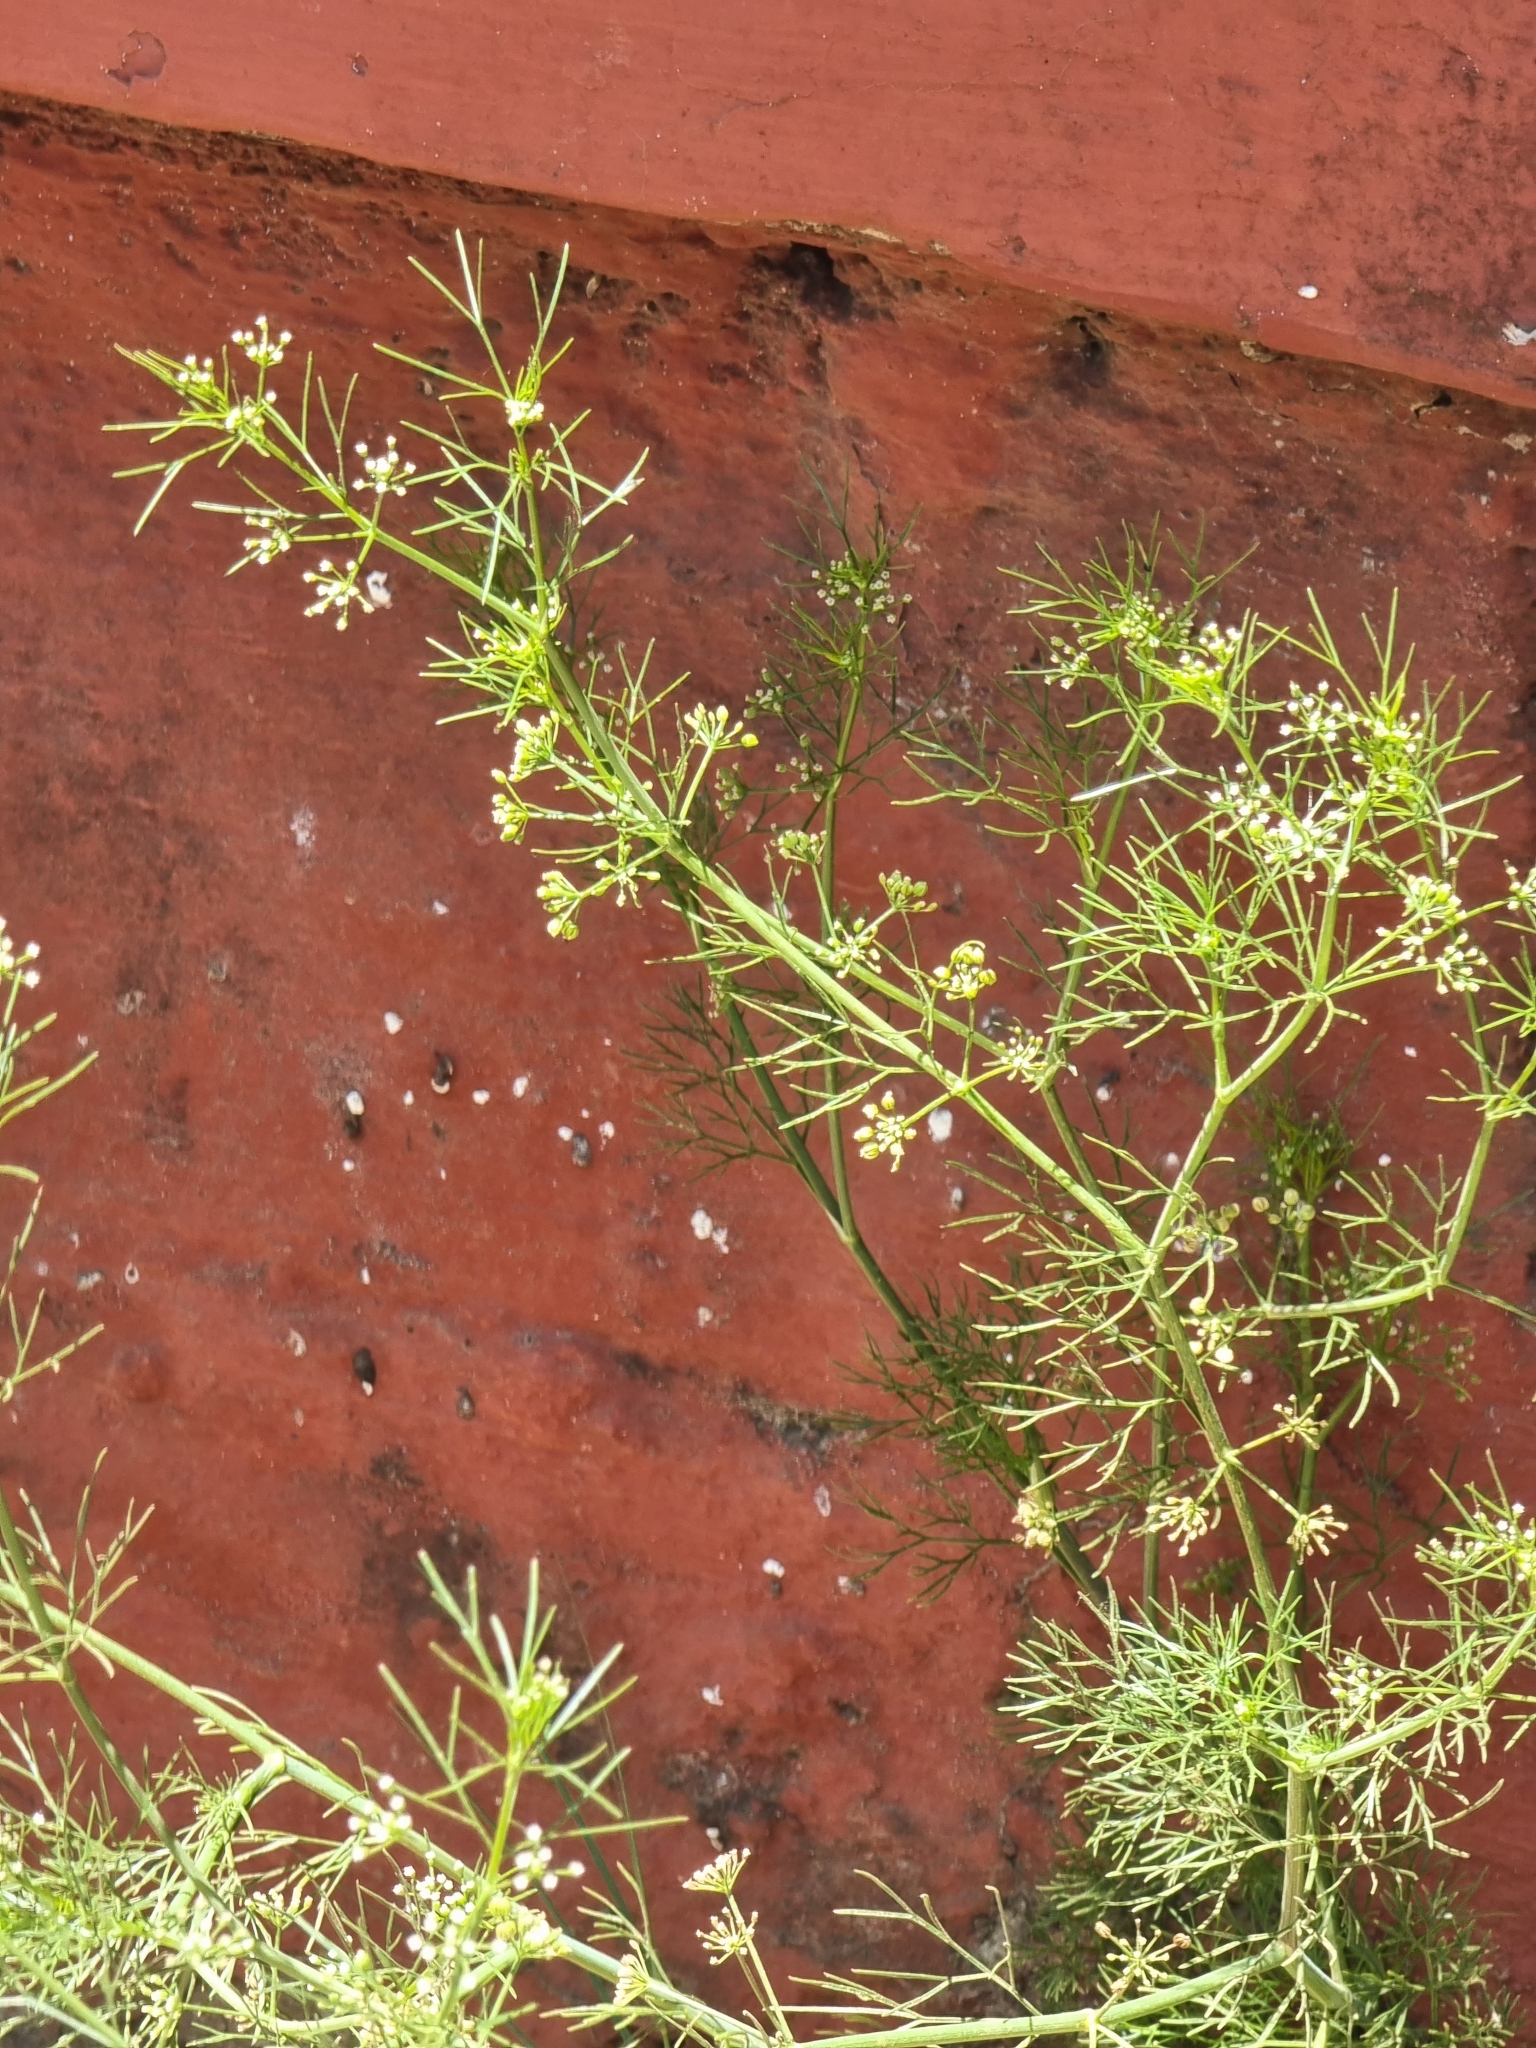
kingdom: Plantae
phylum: Tracheophyta
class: Magnoliopsida
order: Apiales
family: Apiaceae
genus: Coriandrum
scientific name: Coriandrum sativum
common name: Coriander
